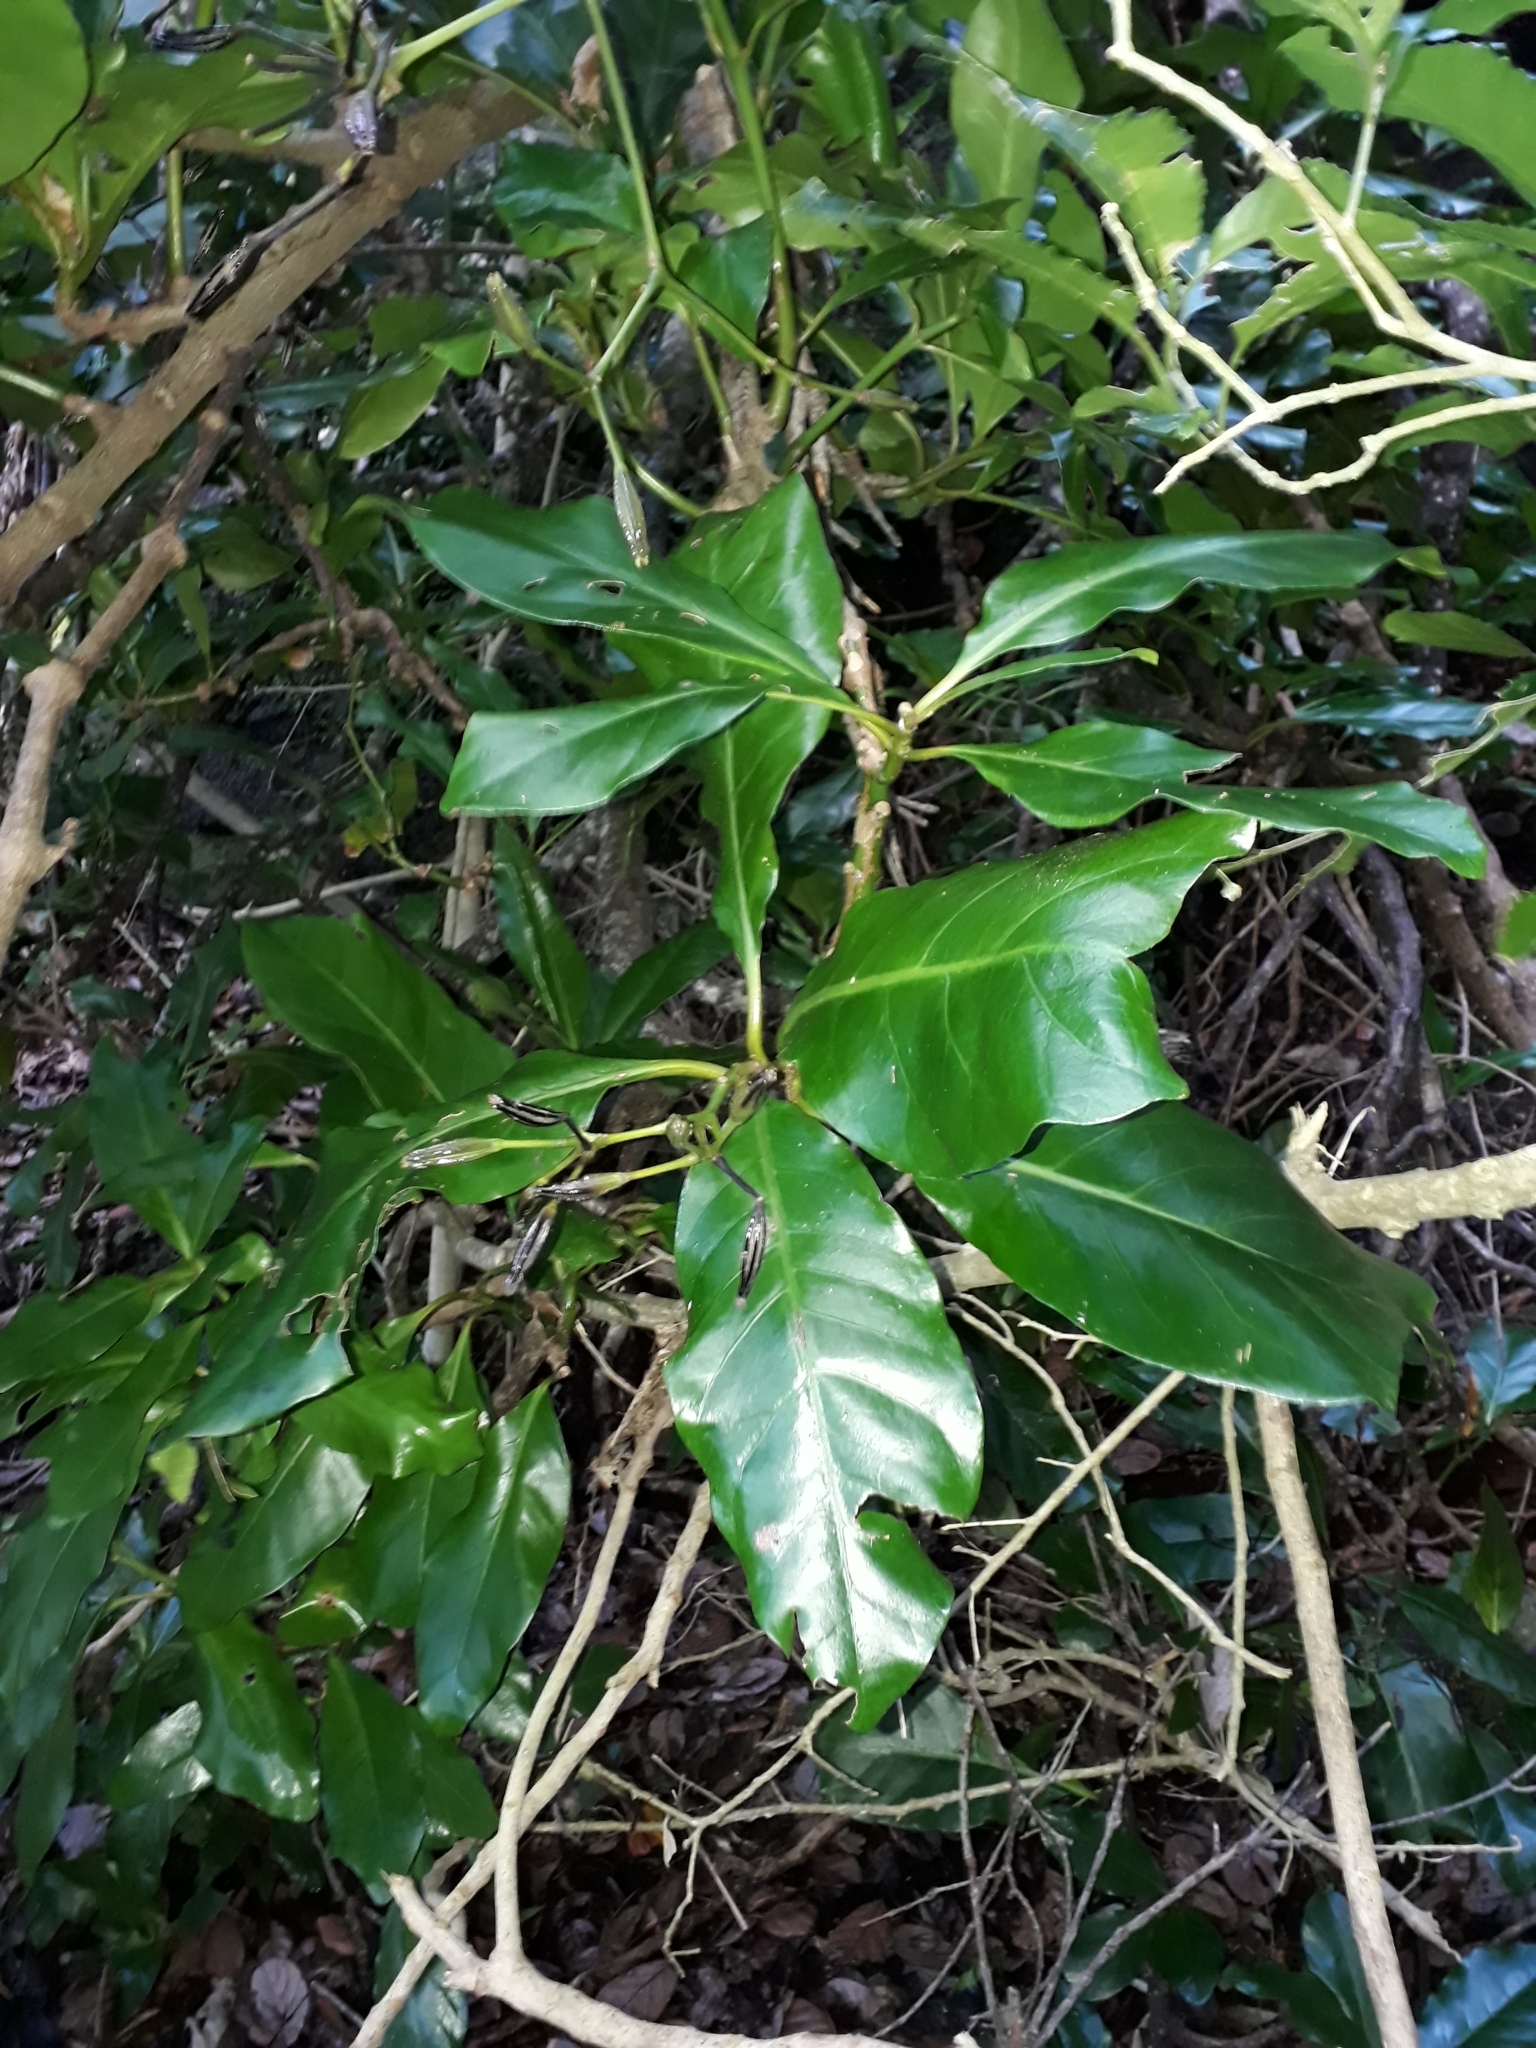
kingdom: Plantae
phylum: Tracheophyta
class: Magnoliopsida
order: Caryophyllales
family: Nyctaginaceae
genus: Ceodes
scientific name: Ceodes brunoniana
